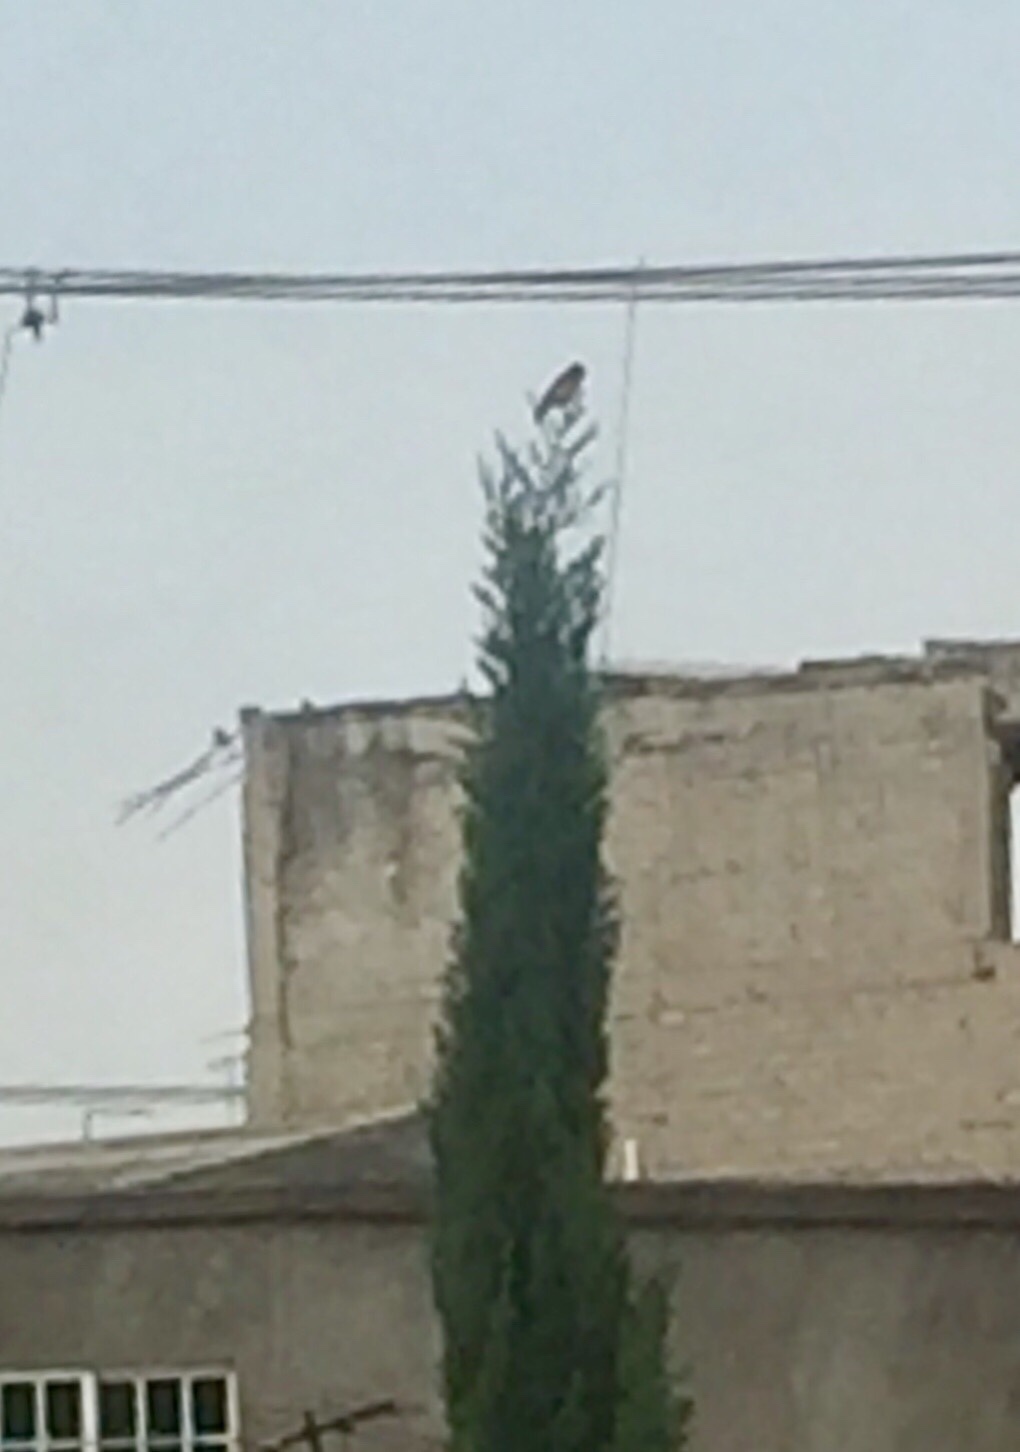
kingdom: Animalia
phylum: Chordata
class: Aves
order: Passeriformes
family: Fringillidae
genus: Spinus
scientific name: Spinus psaltria
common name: Lesser goldfinch
